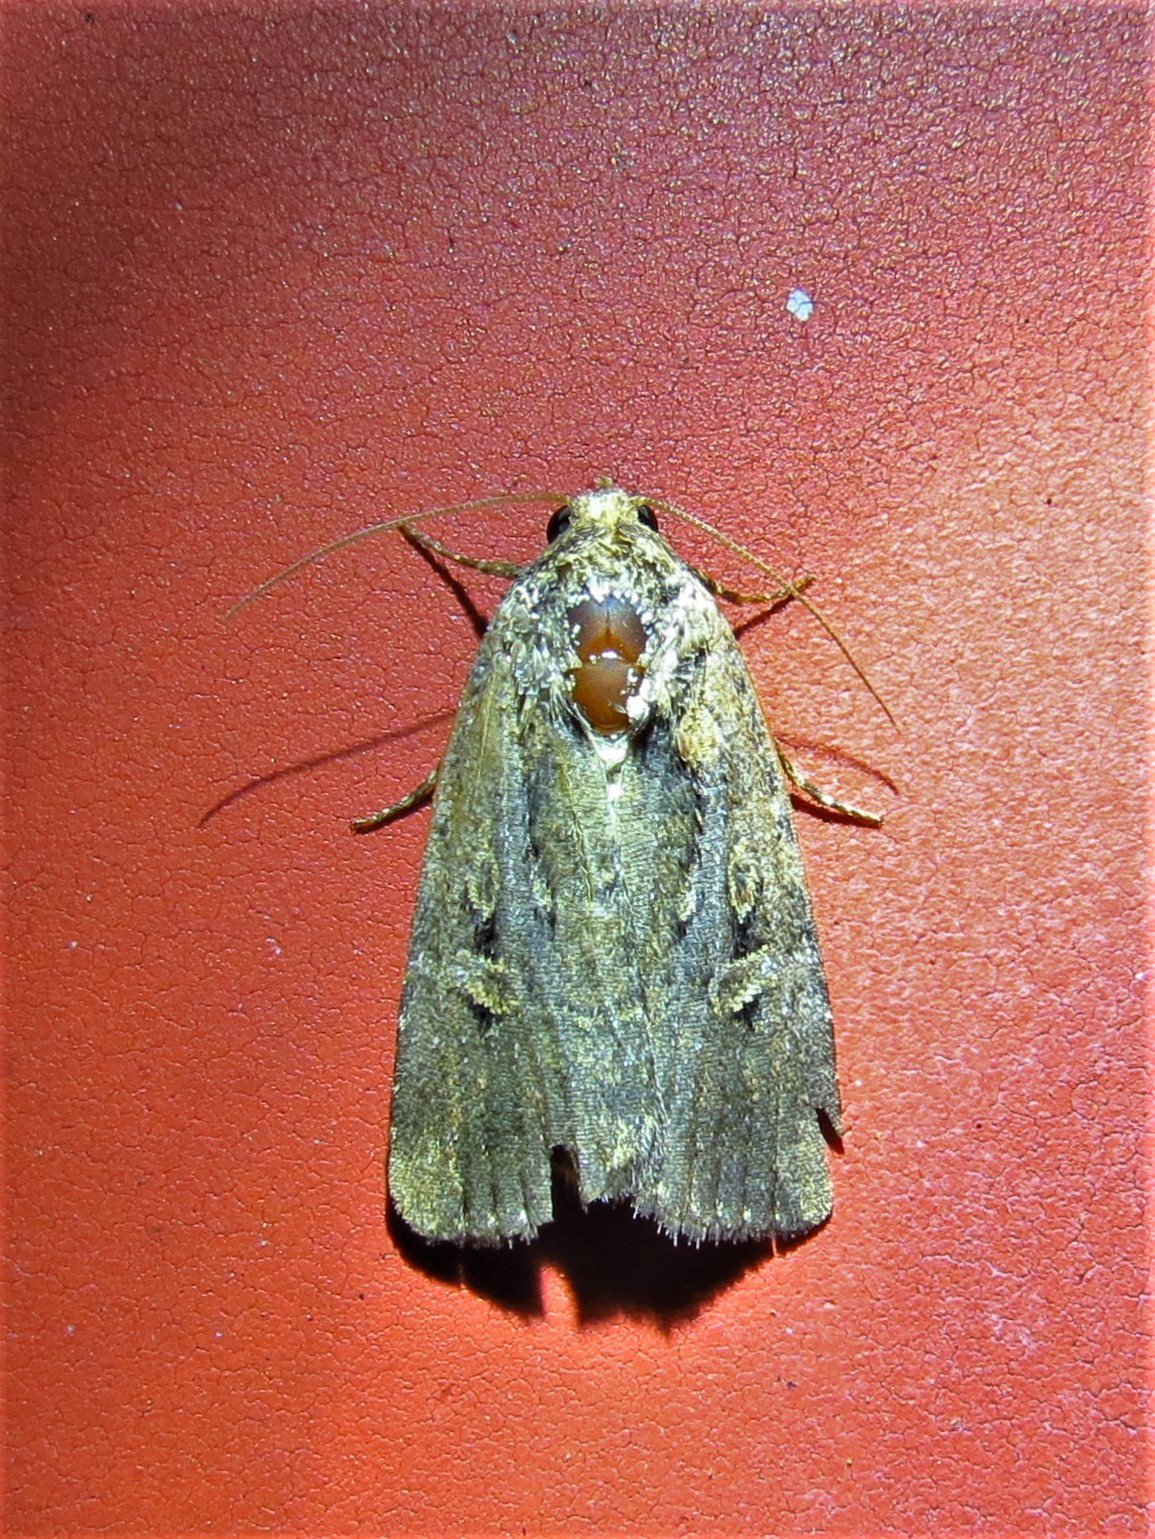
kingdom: Animalia
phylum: Arthropoda
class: Insecta
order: Lepidoptera
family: Noctuidae
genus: Elaphria
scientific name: Elaphria chalcedonia
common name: Chalcedony midget
